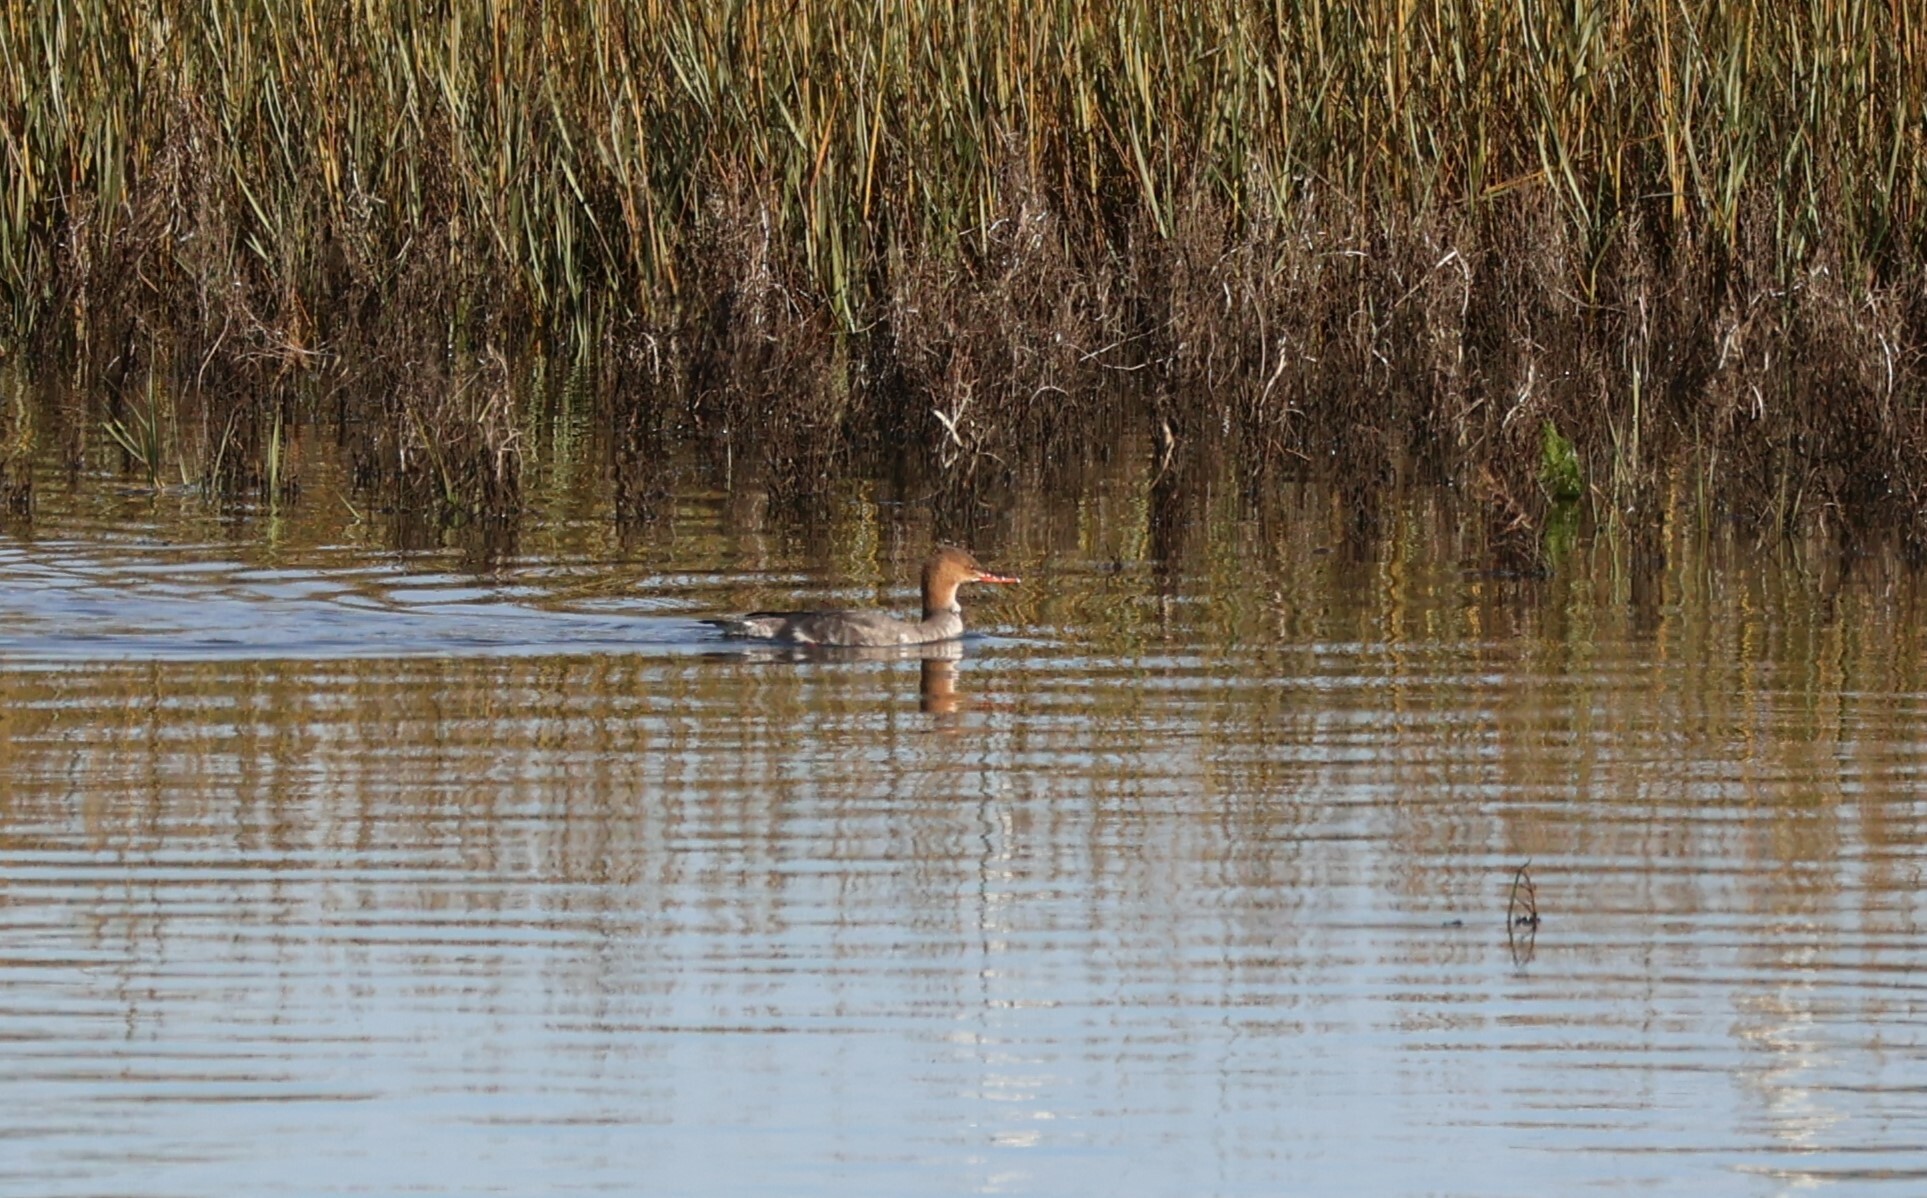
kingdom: Animalia
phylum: Chordata
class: Aves
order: Anseriformes
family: Anatidae
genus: Mergus
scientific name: Mergus serrator
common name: Red-breasted merganser
